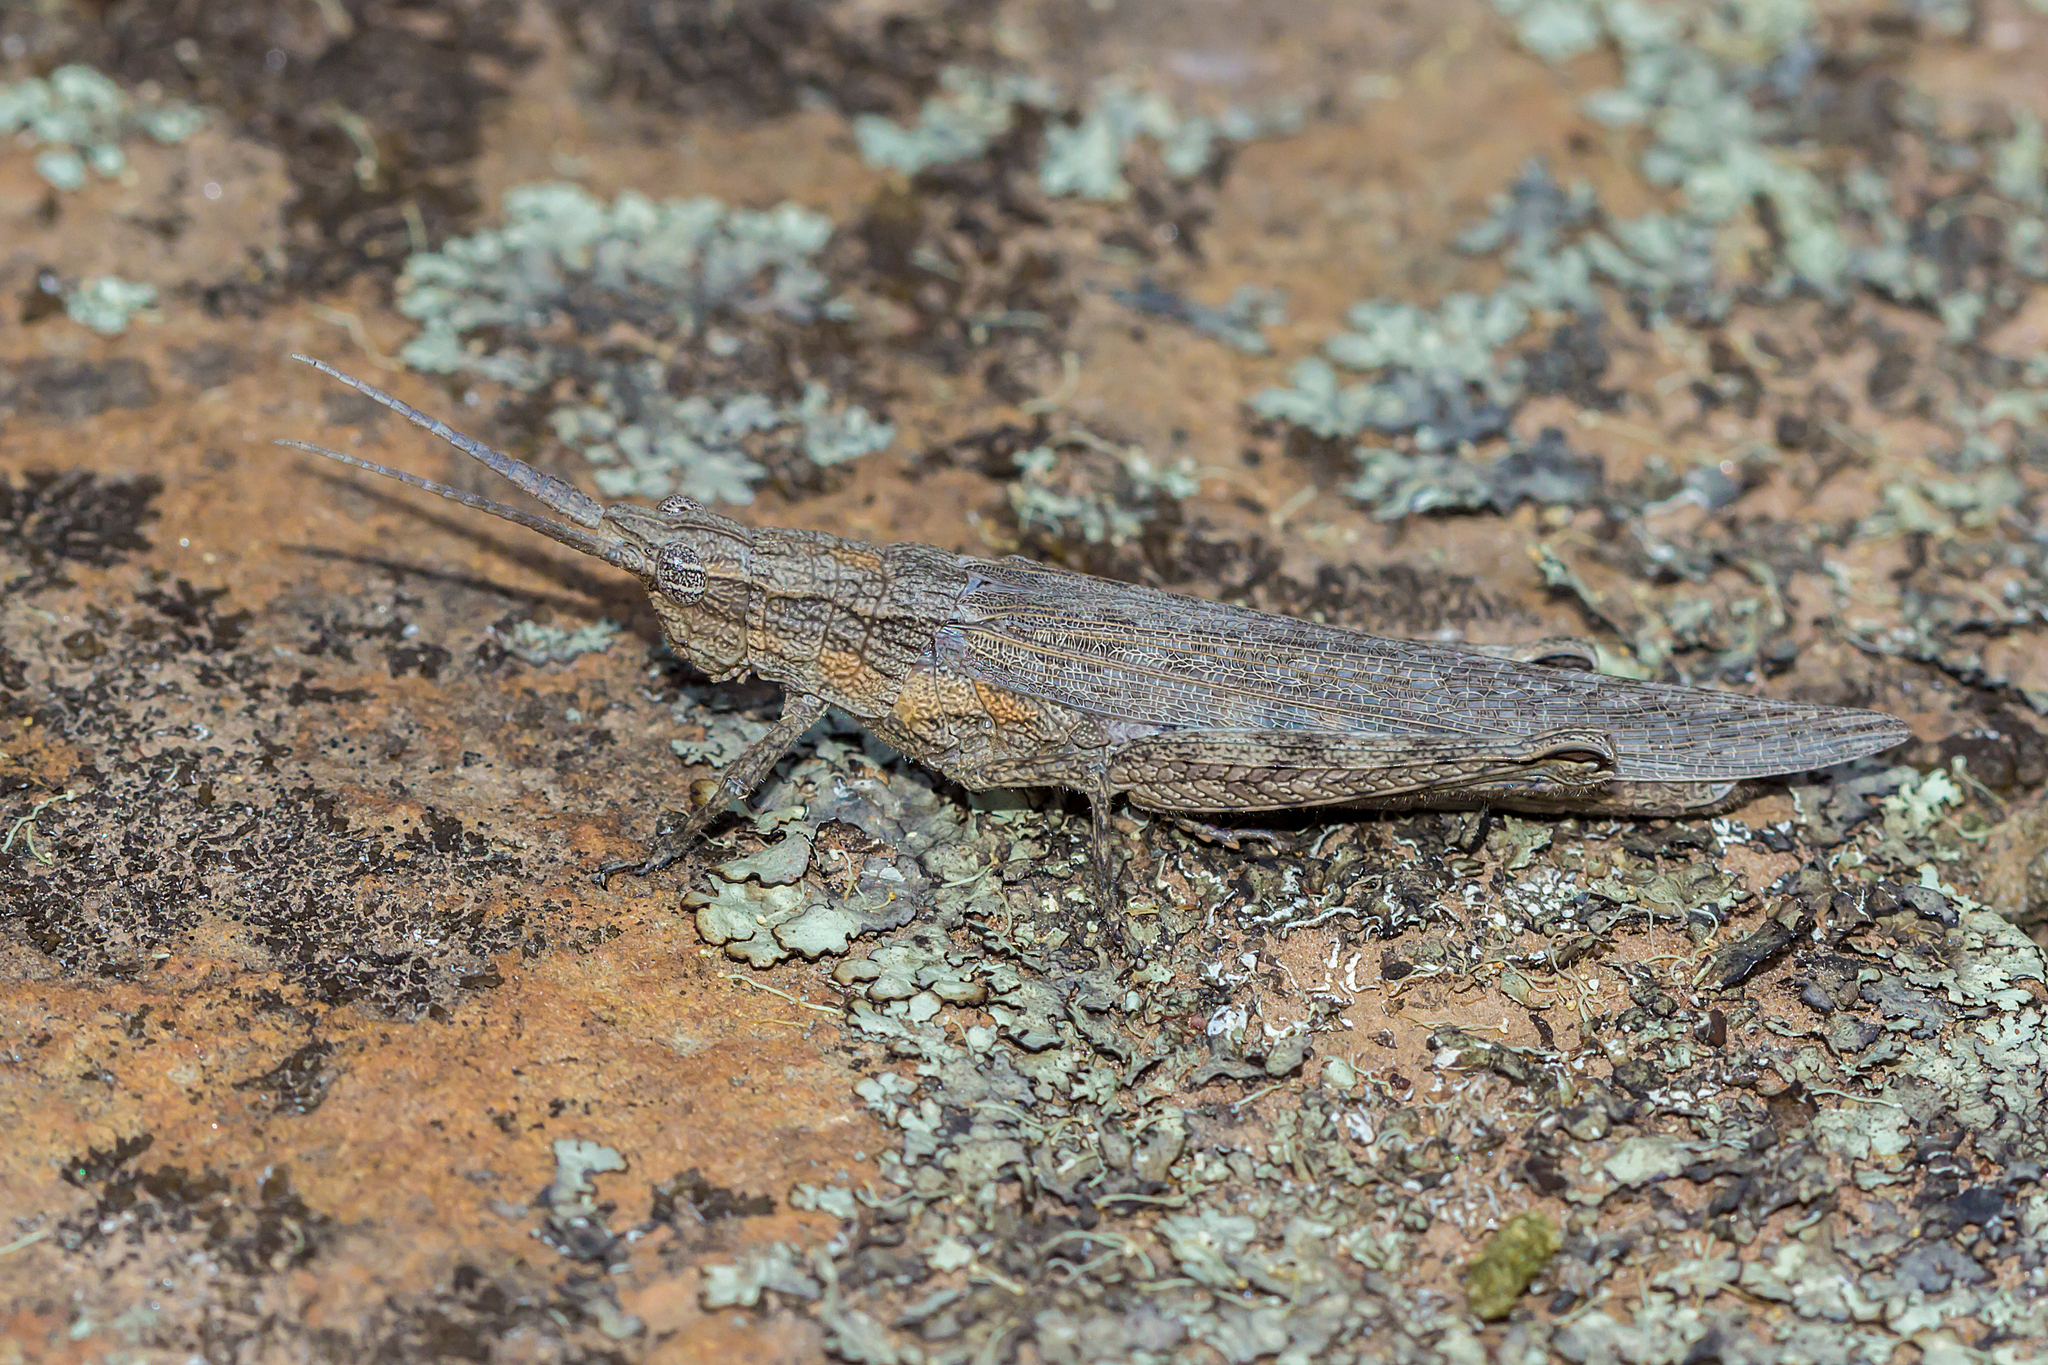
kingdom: Animalia
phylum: Arthropoda
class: Insecta
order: Orthoptera
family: Acrididae
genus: Coryphistes
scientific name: Coryphistes ruricola
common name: Bark-mimicking grasshopper
